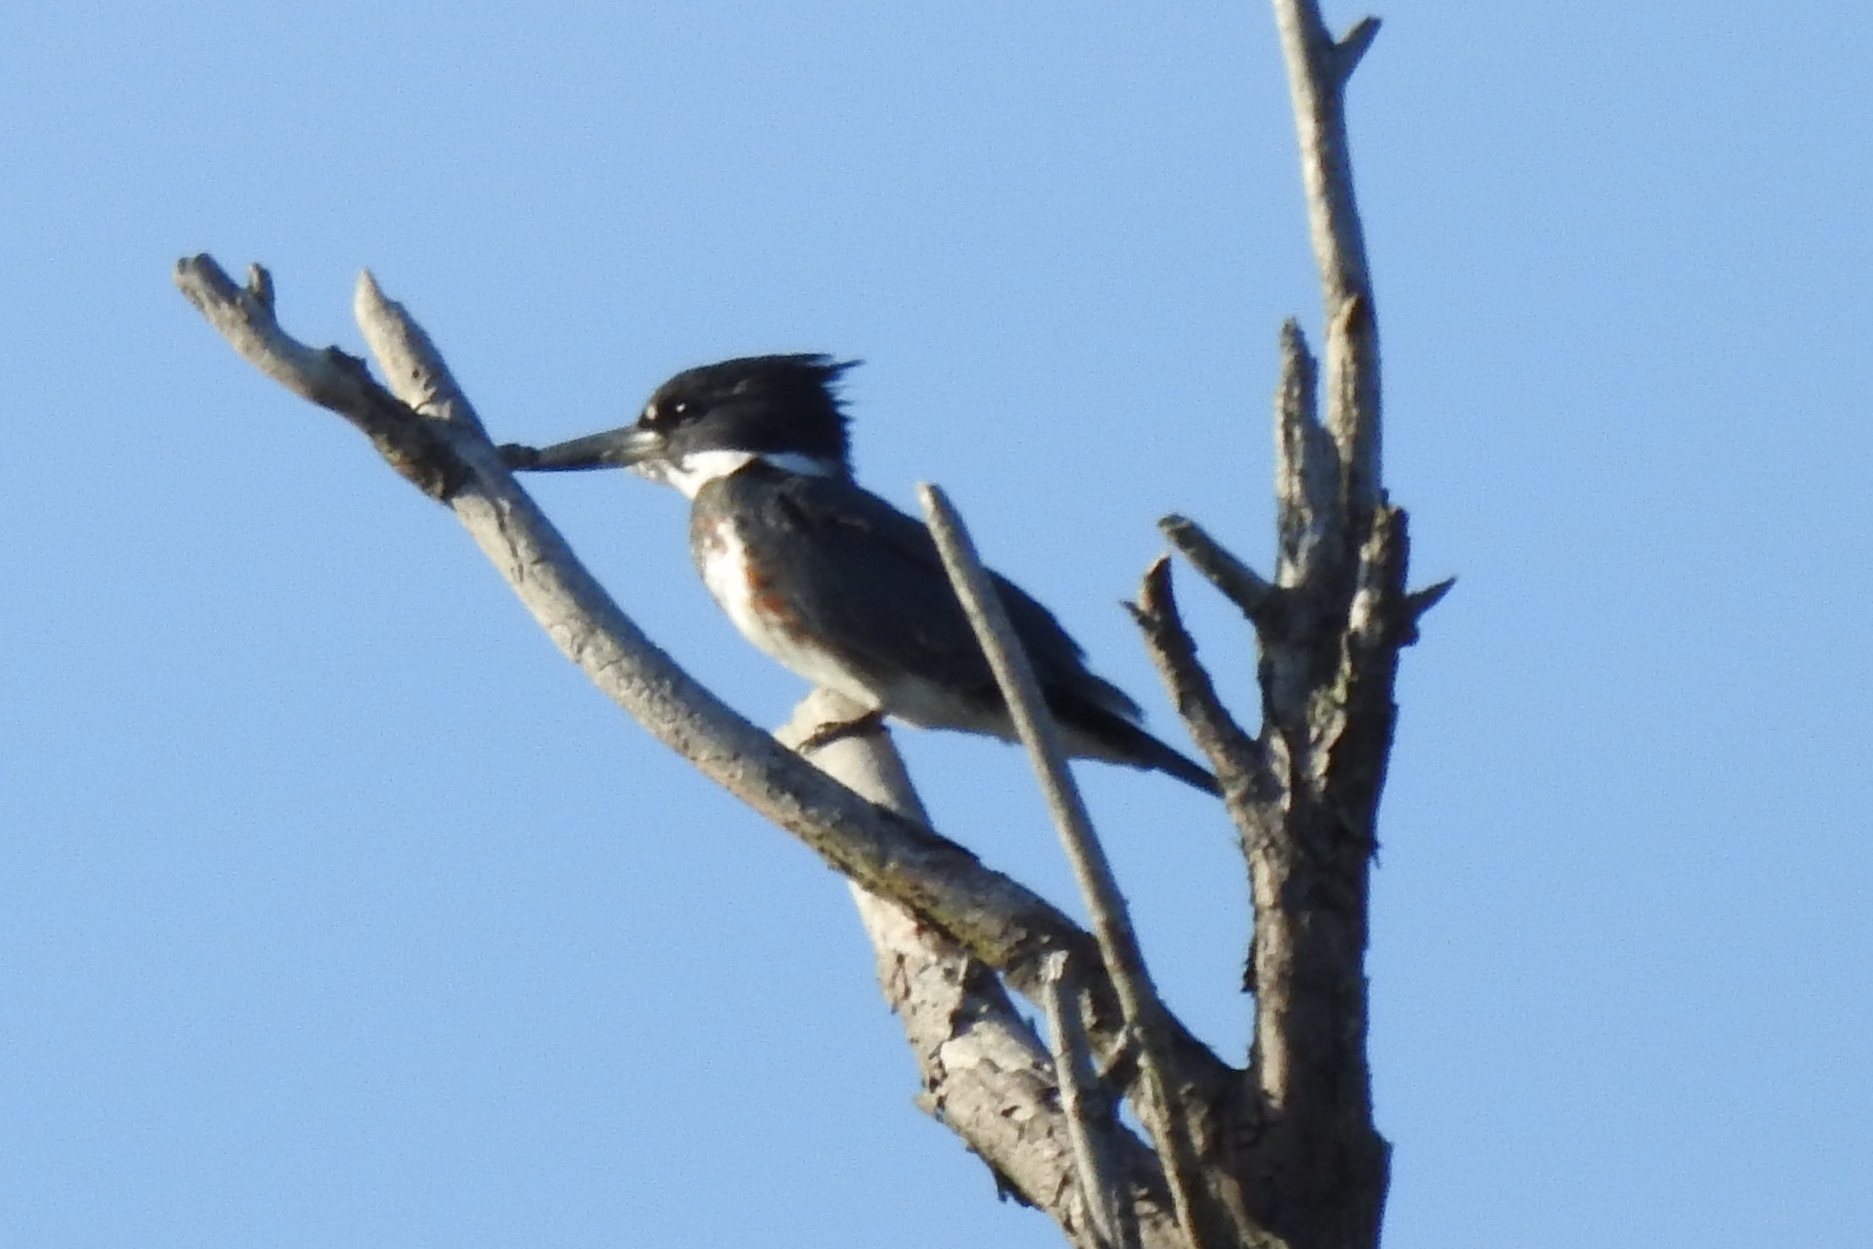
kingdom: Animalia
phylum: Chordata
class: Aves
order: Coraciiformes
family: Alcedinidae
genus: Megaceryle
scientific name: Megaceryle alcyon
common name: Belted kingfisher
